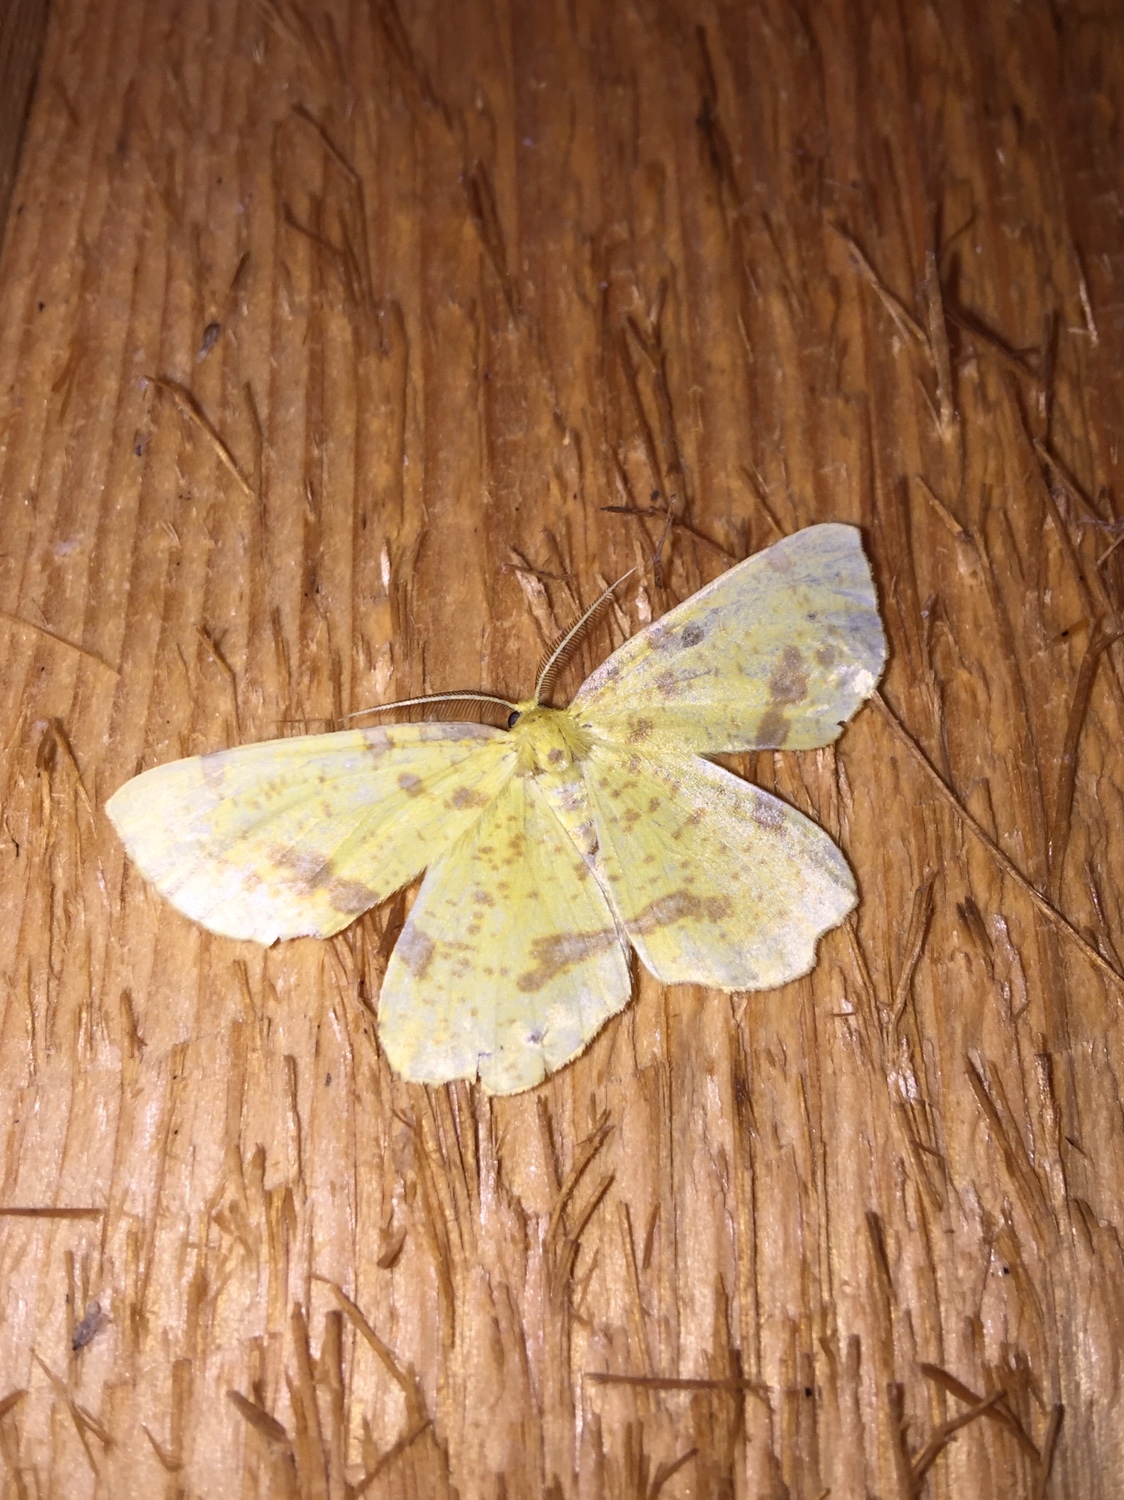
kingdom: Animalia
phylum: Arthropoda
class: Insecta
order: Lepidoptera
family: Geometridae
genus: Xanthotype
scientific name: Xanthotype
